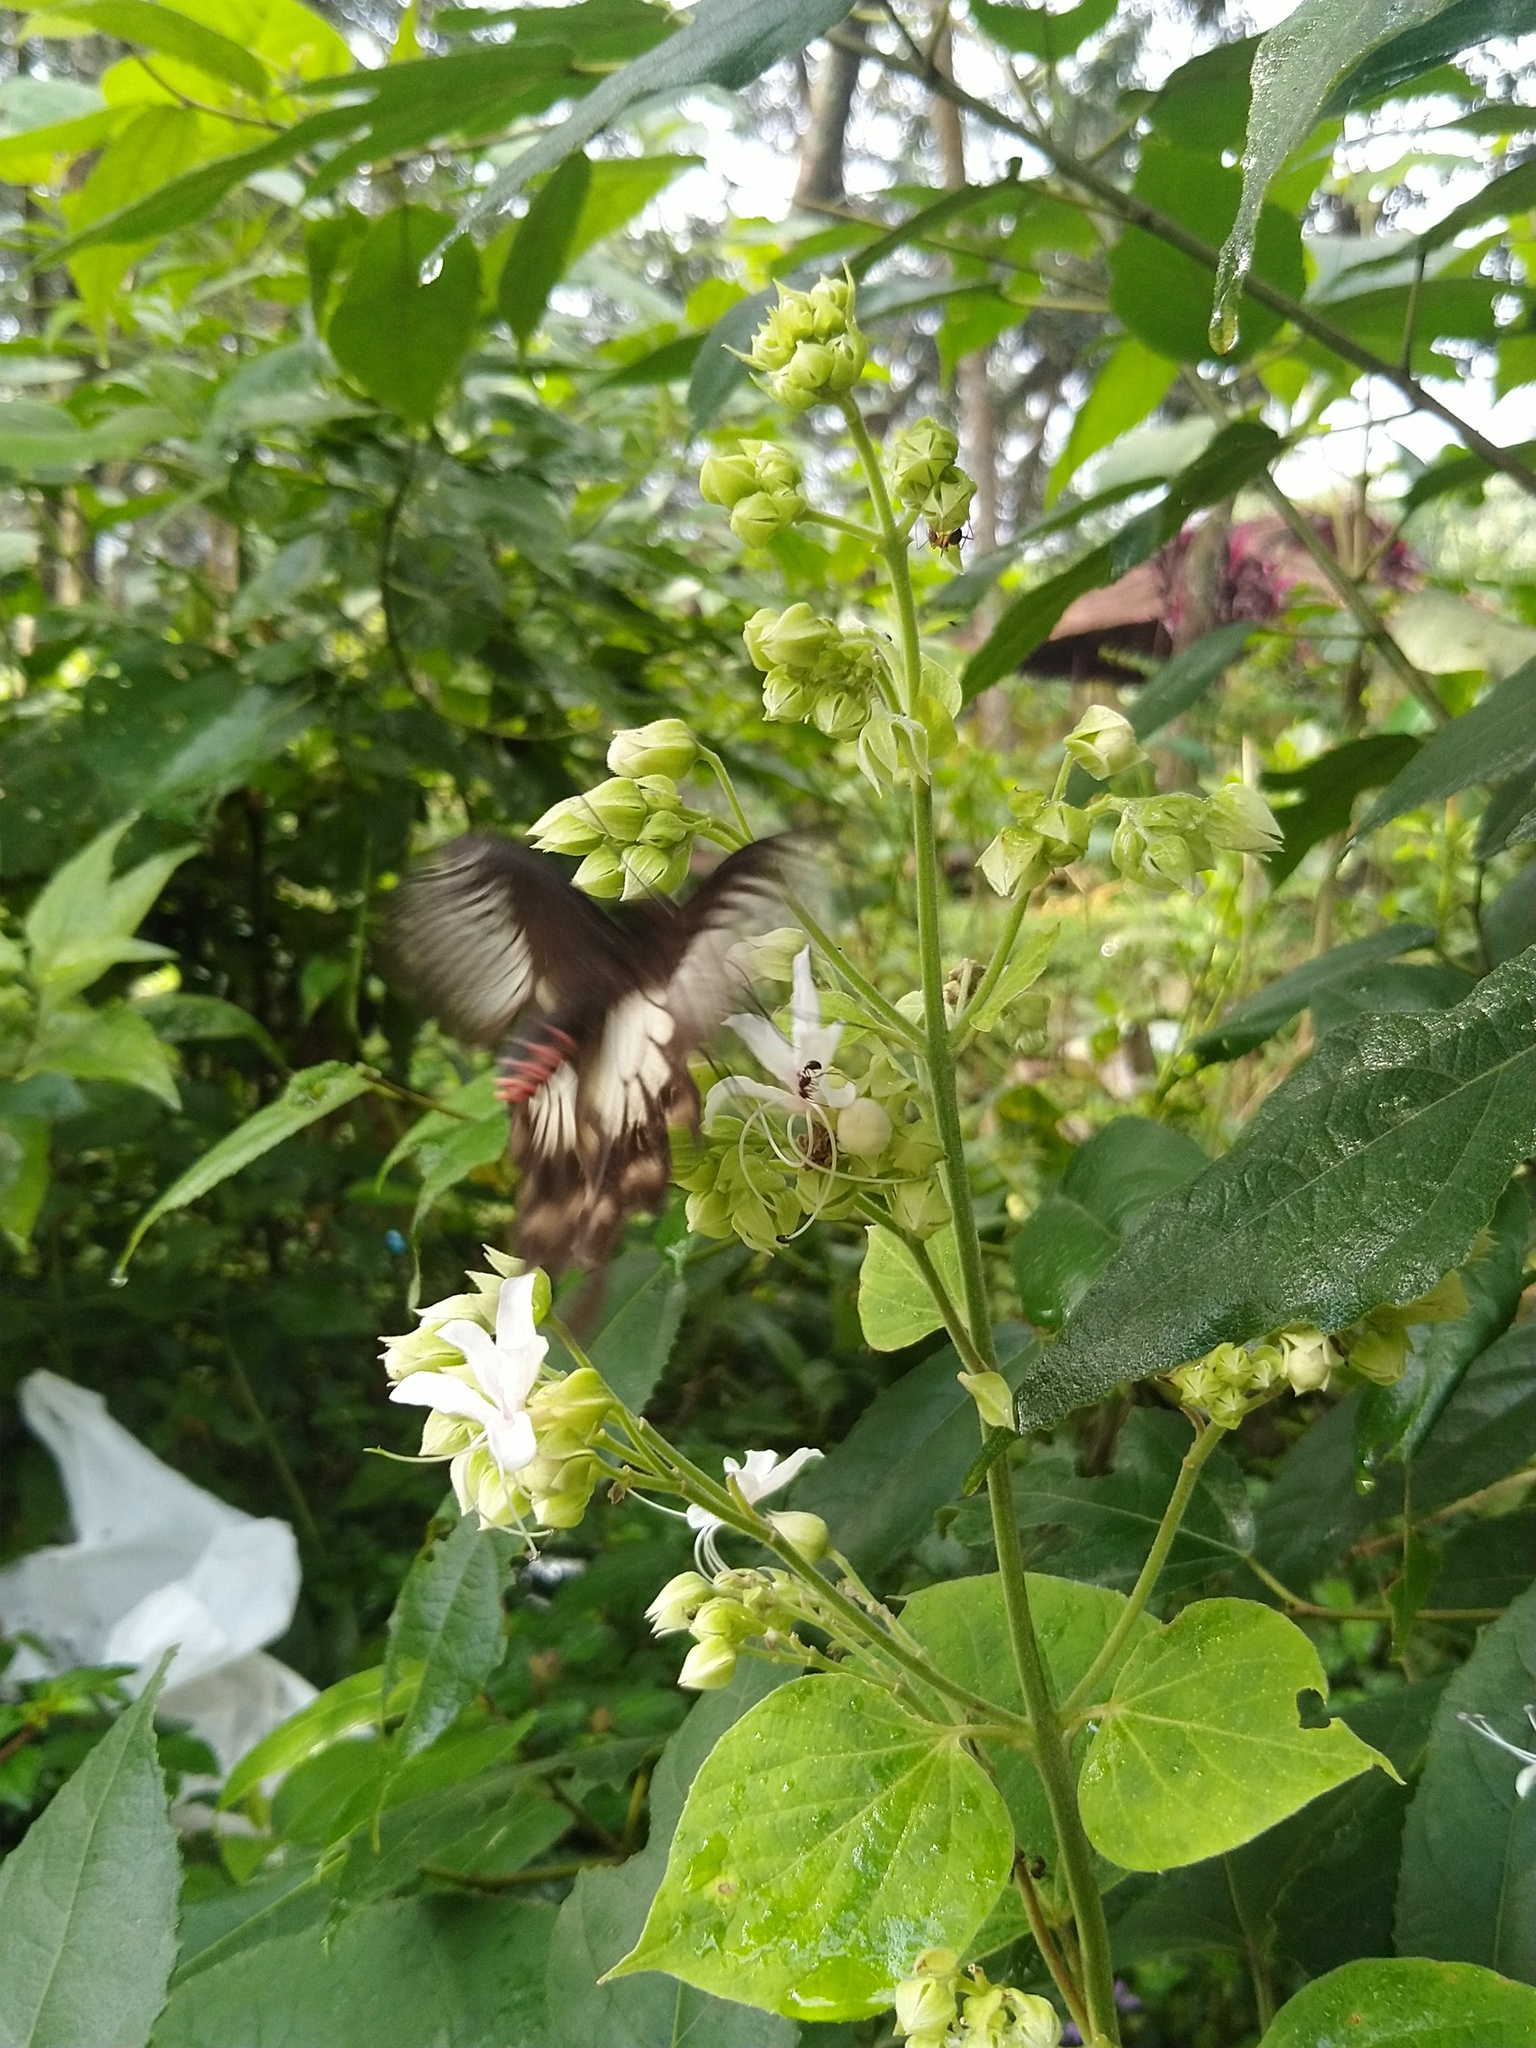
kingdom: Animalia
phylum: Arthropoda
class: Insecta
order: Lepidoptera
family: Papilionidae
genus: Pachliopta
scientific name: Pachliopta pandiyana
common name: Malabar rose
